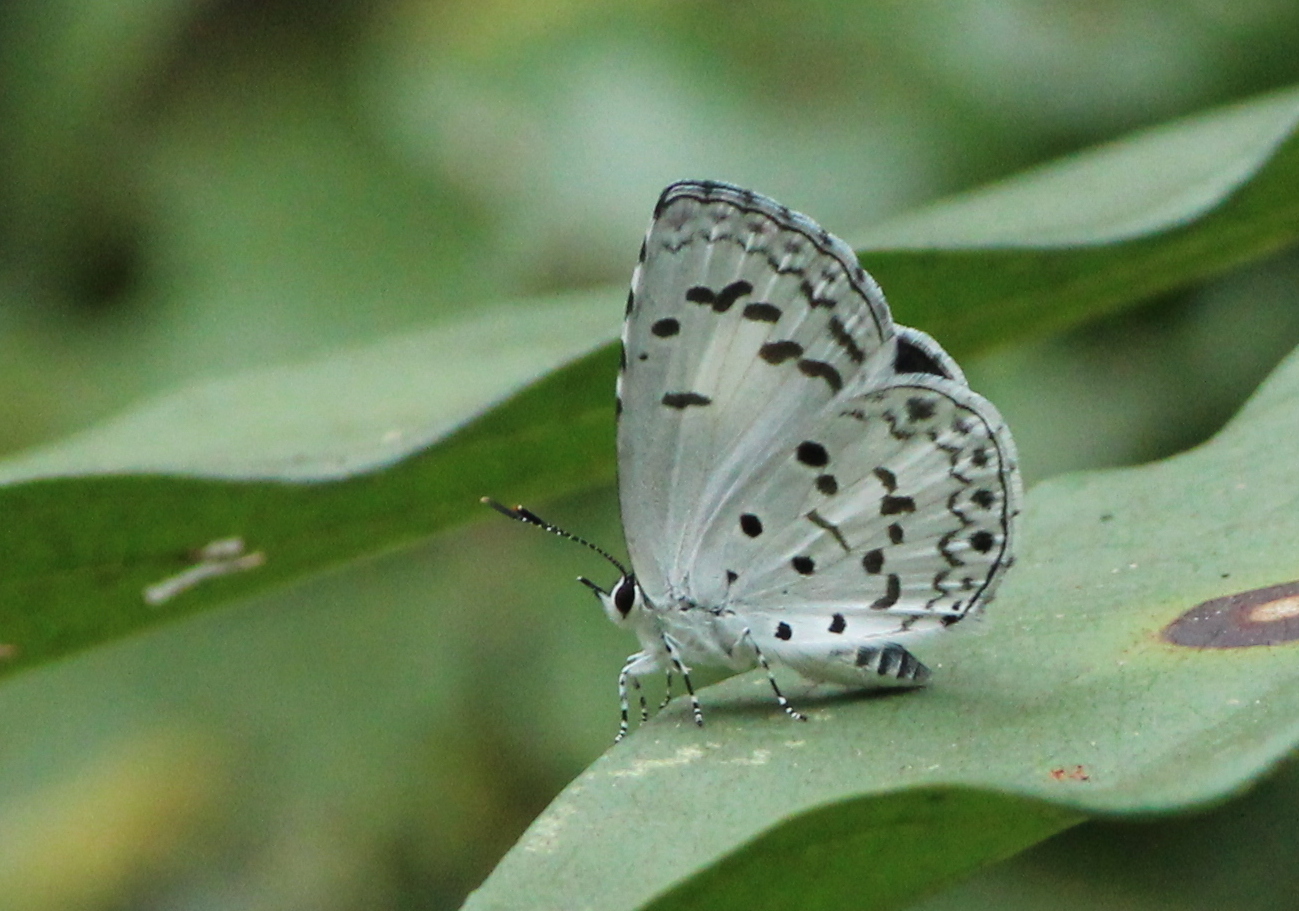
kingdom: Animalia
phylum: Arthropoda
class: Insecta
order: Lepidoptera
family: Lycaenidae
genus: Acytolepis
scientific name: Acytolepis puspa
